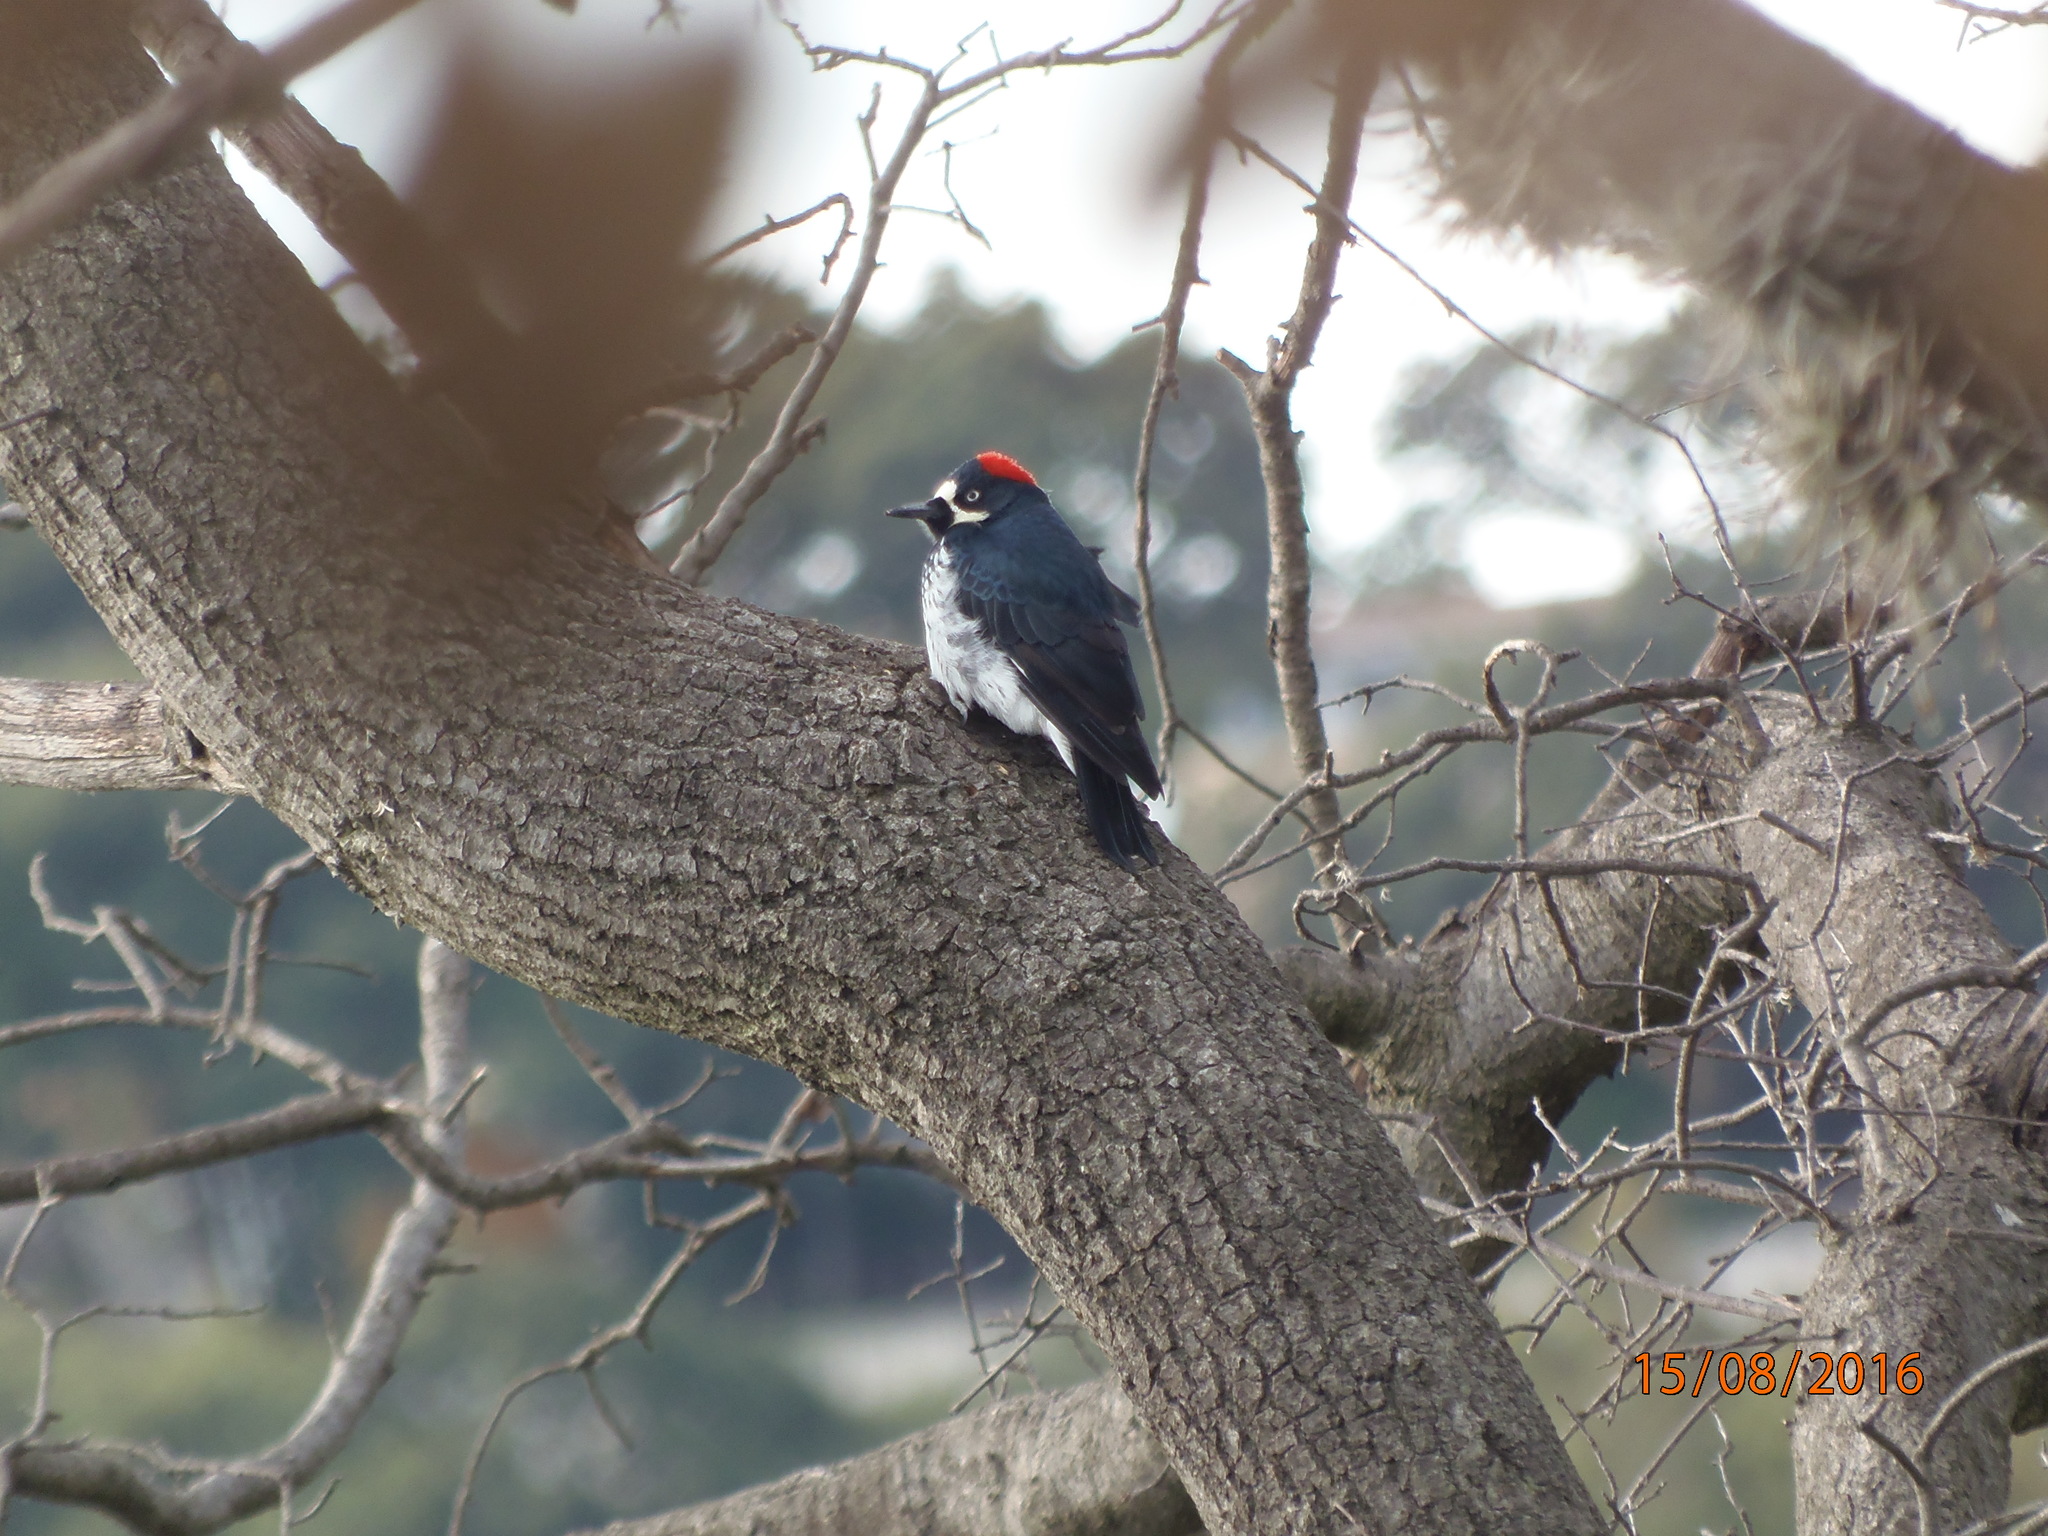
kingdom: Animalia
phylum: Chordata
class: Aves
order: Piciformes
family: Picidae
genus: Melanerpes
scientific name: Melanerpes formicivorus
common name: Acorn woodpecker
